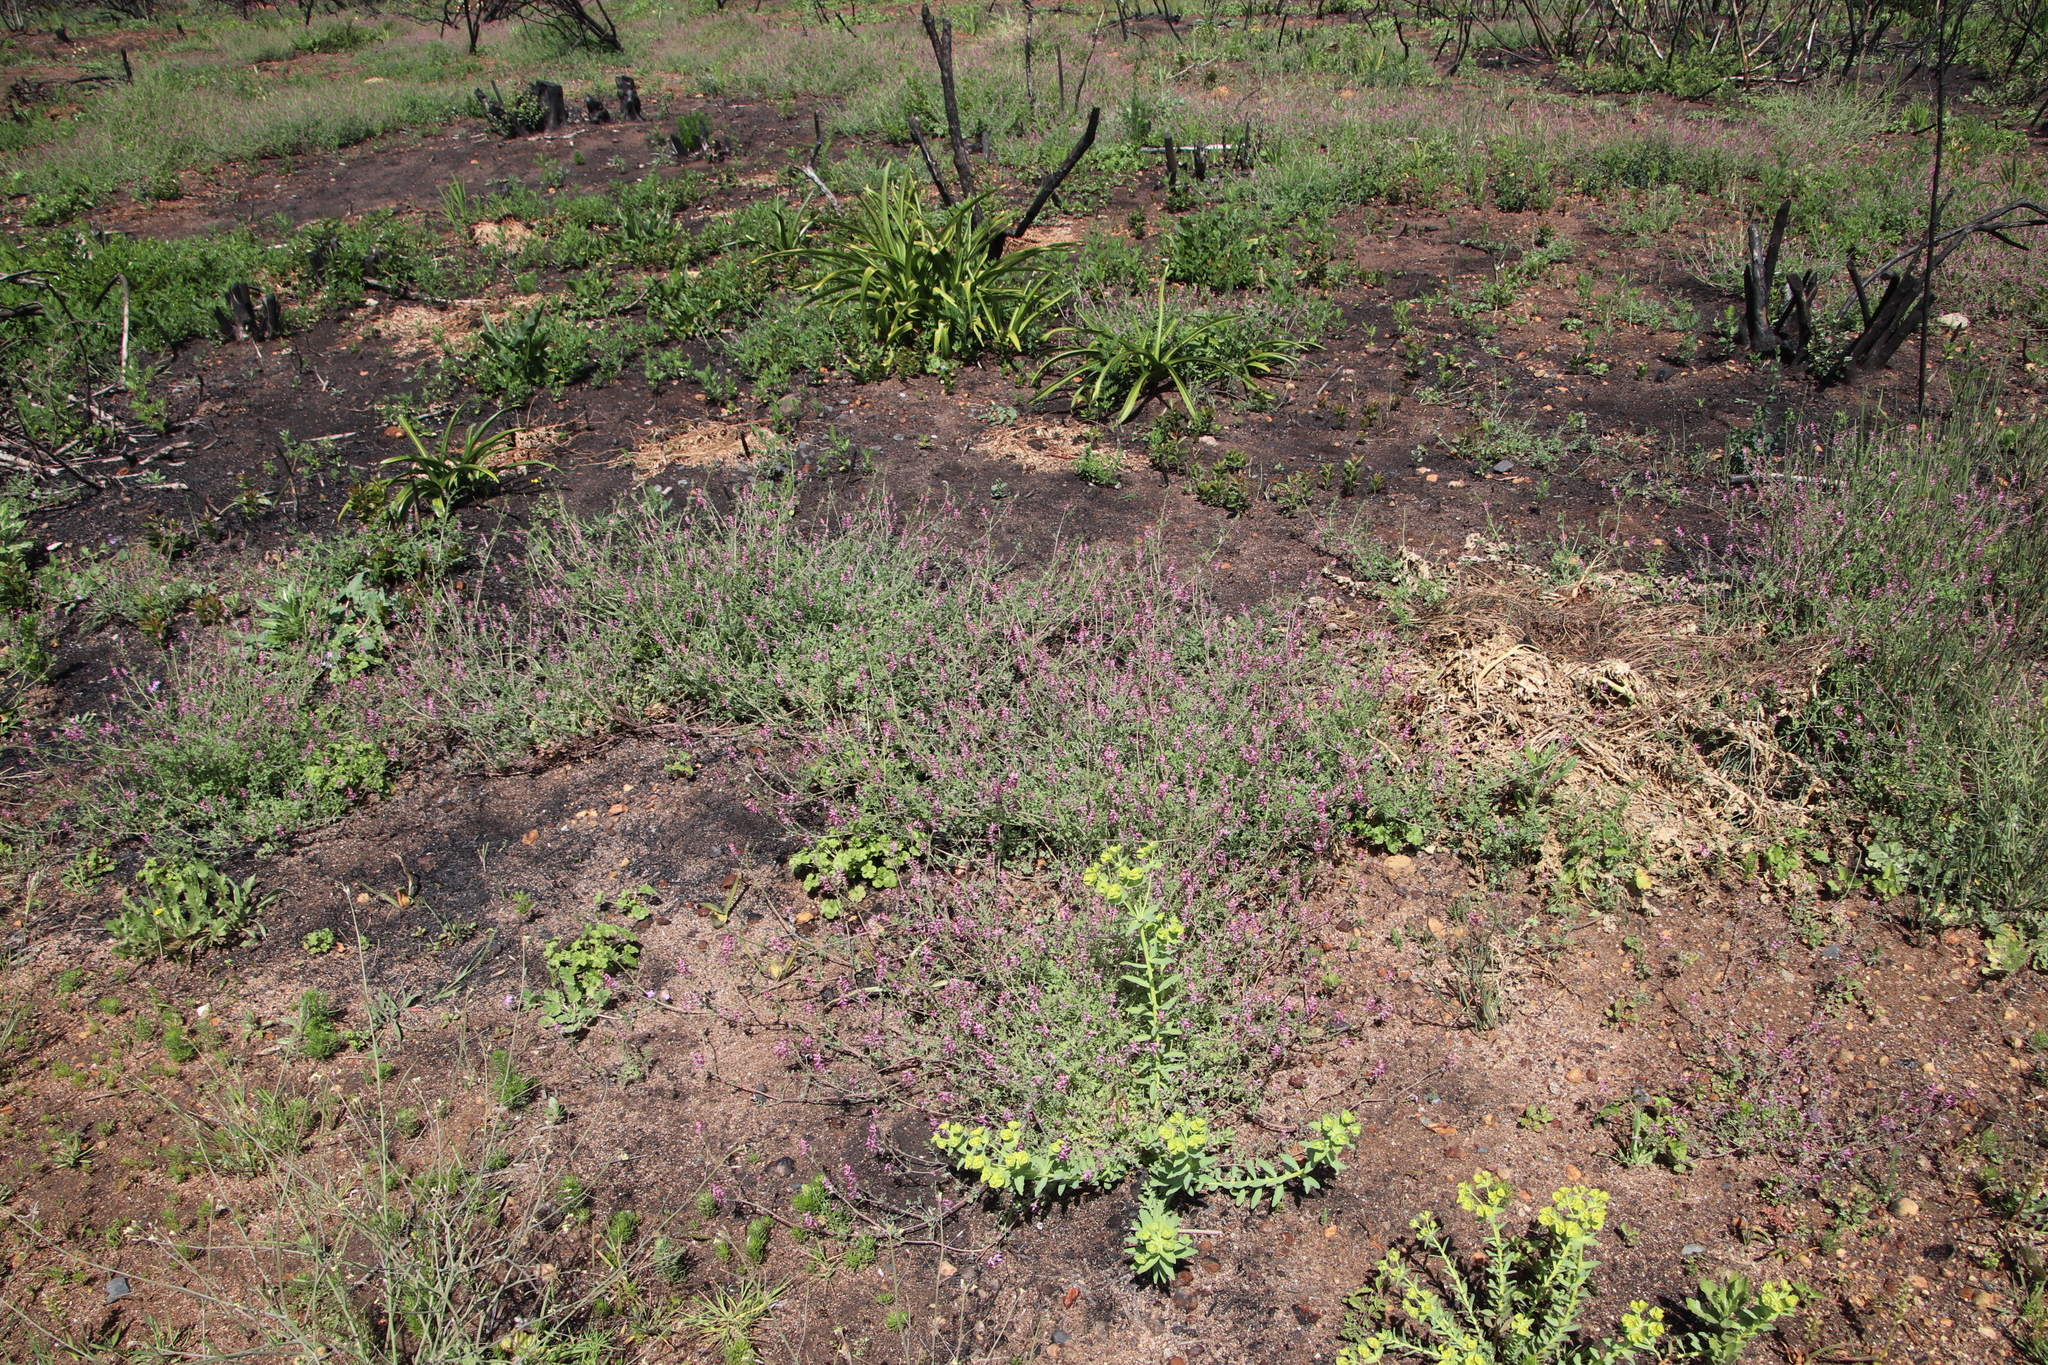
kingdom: Plantae
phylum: Tracheophyta
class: Magnoliopsida
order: Ranunculales
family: Papaveraceae
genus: Fumaria
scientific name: Fumaria muralis
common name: Common ramping-fumitory
